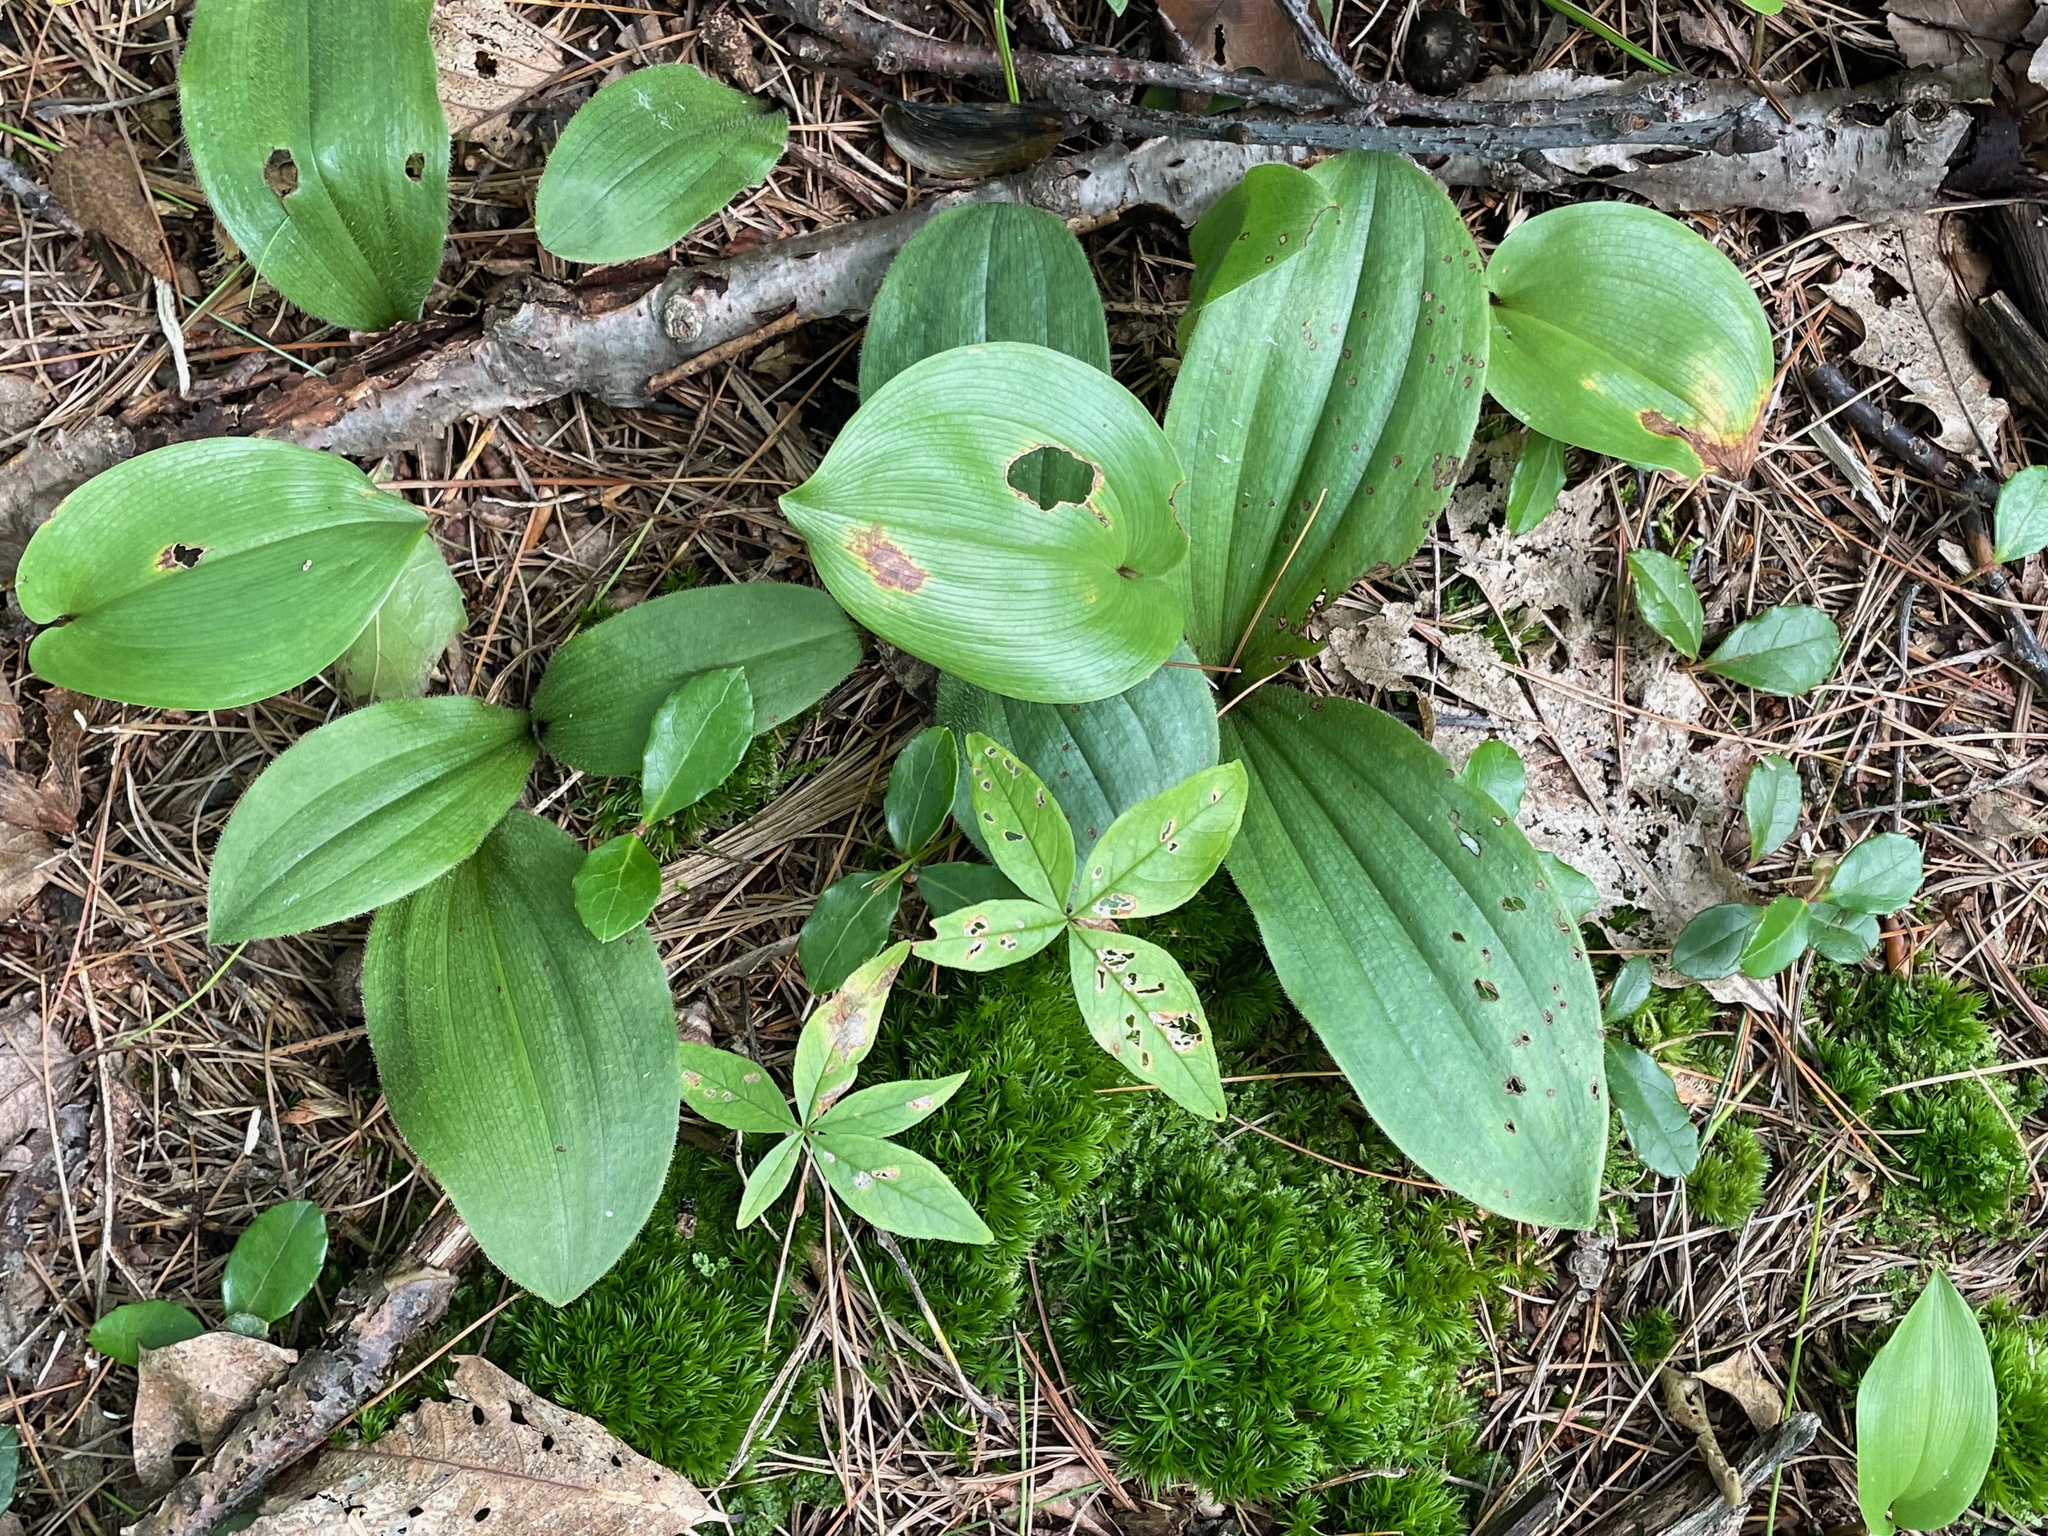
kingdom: Plantae
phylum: Tracheophyta
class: Liliopsida
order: Asparagales
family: Orchidaceae
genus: Cypripedium
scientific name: Cypripedium acaule
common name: Pink lady's-slipper
